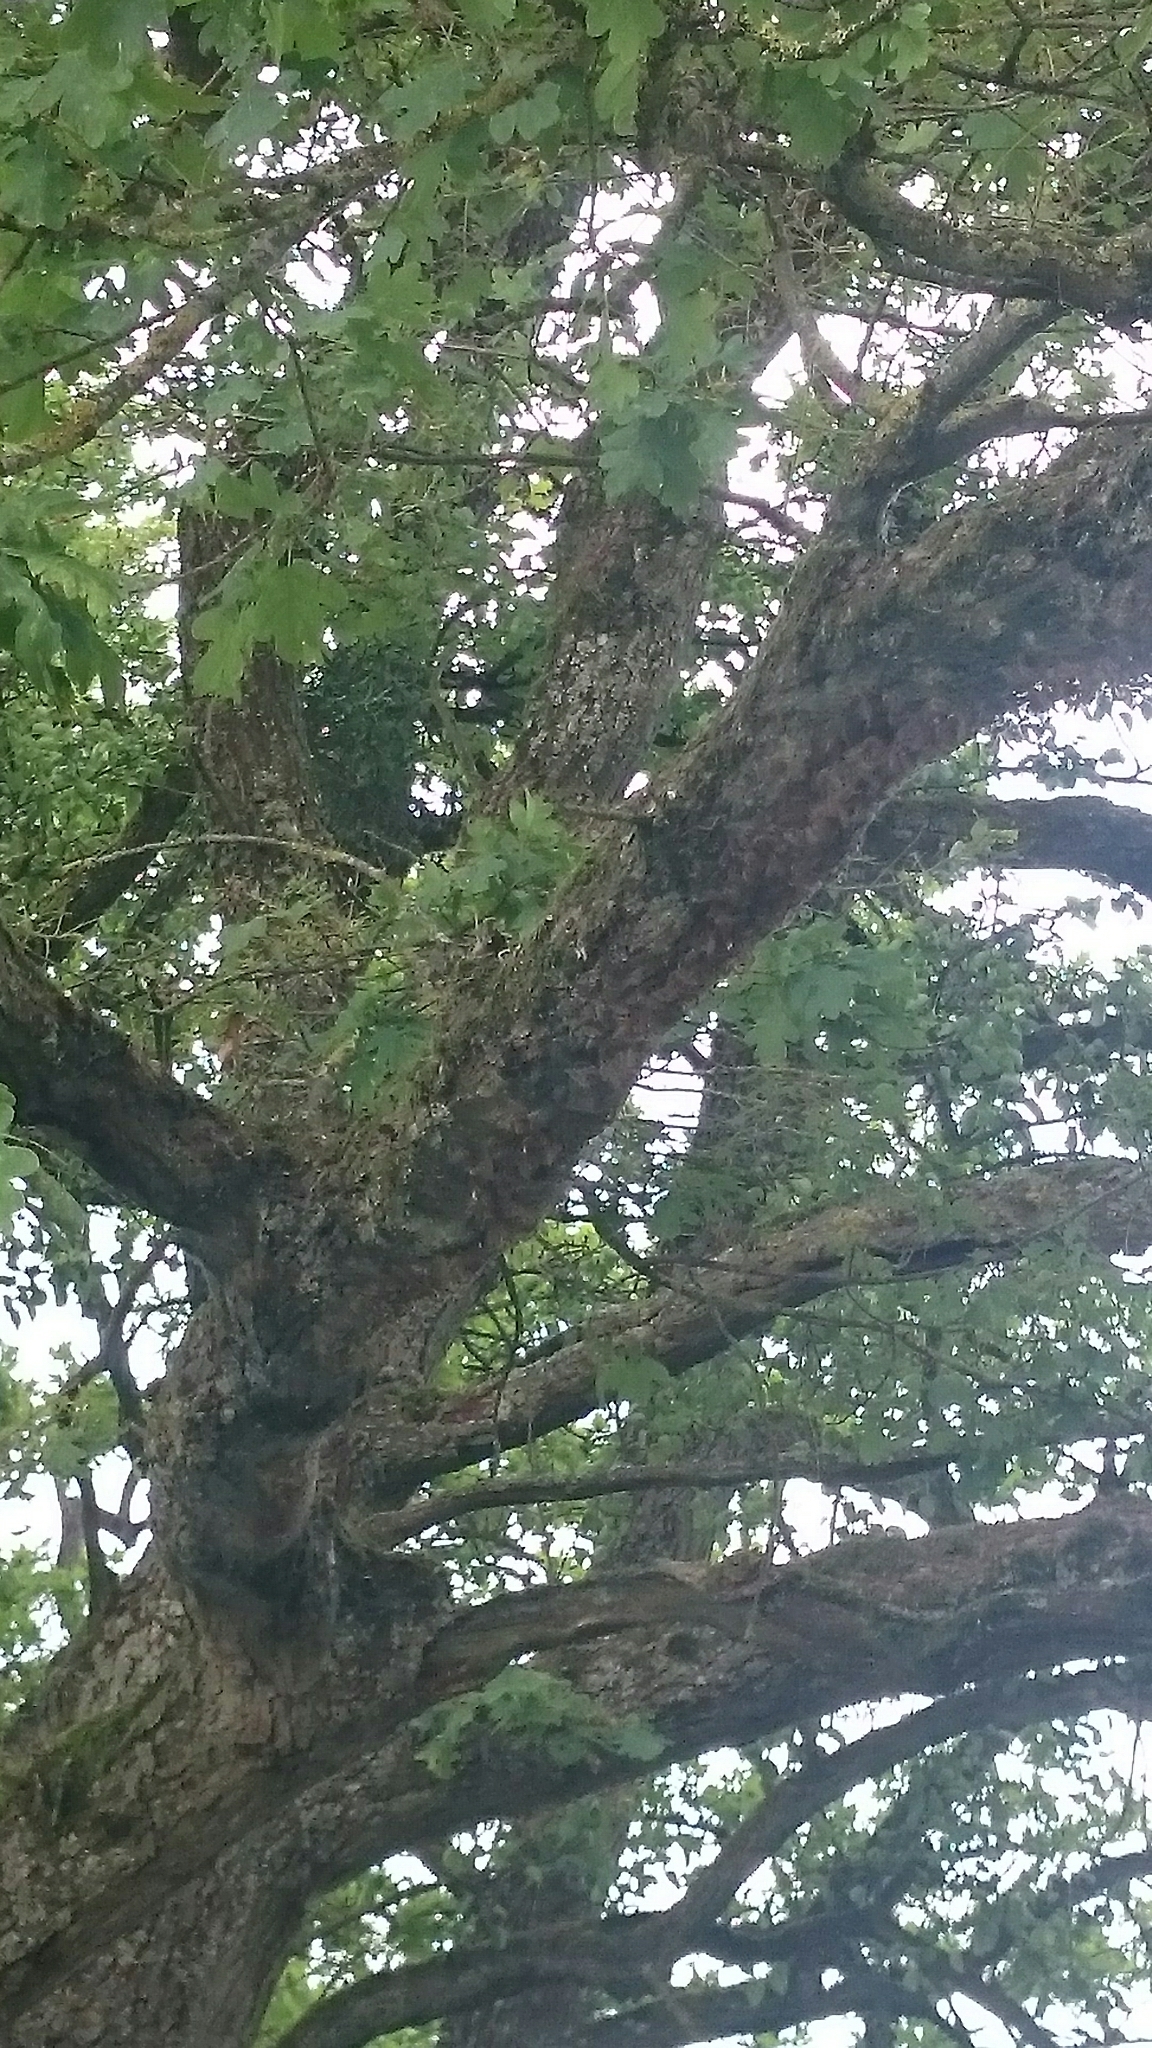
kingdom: Animalia
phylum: Arthropoda
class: Insecta
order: Lepidoptera
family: Notodontidae
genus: Thaumetopoea
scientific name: Thaumetopoea processionea
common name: Oak processionea
